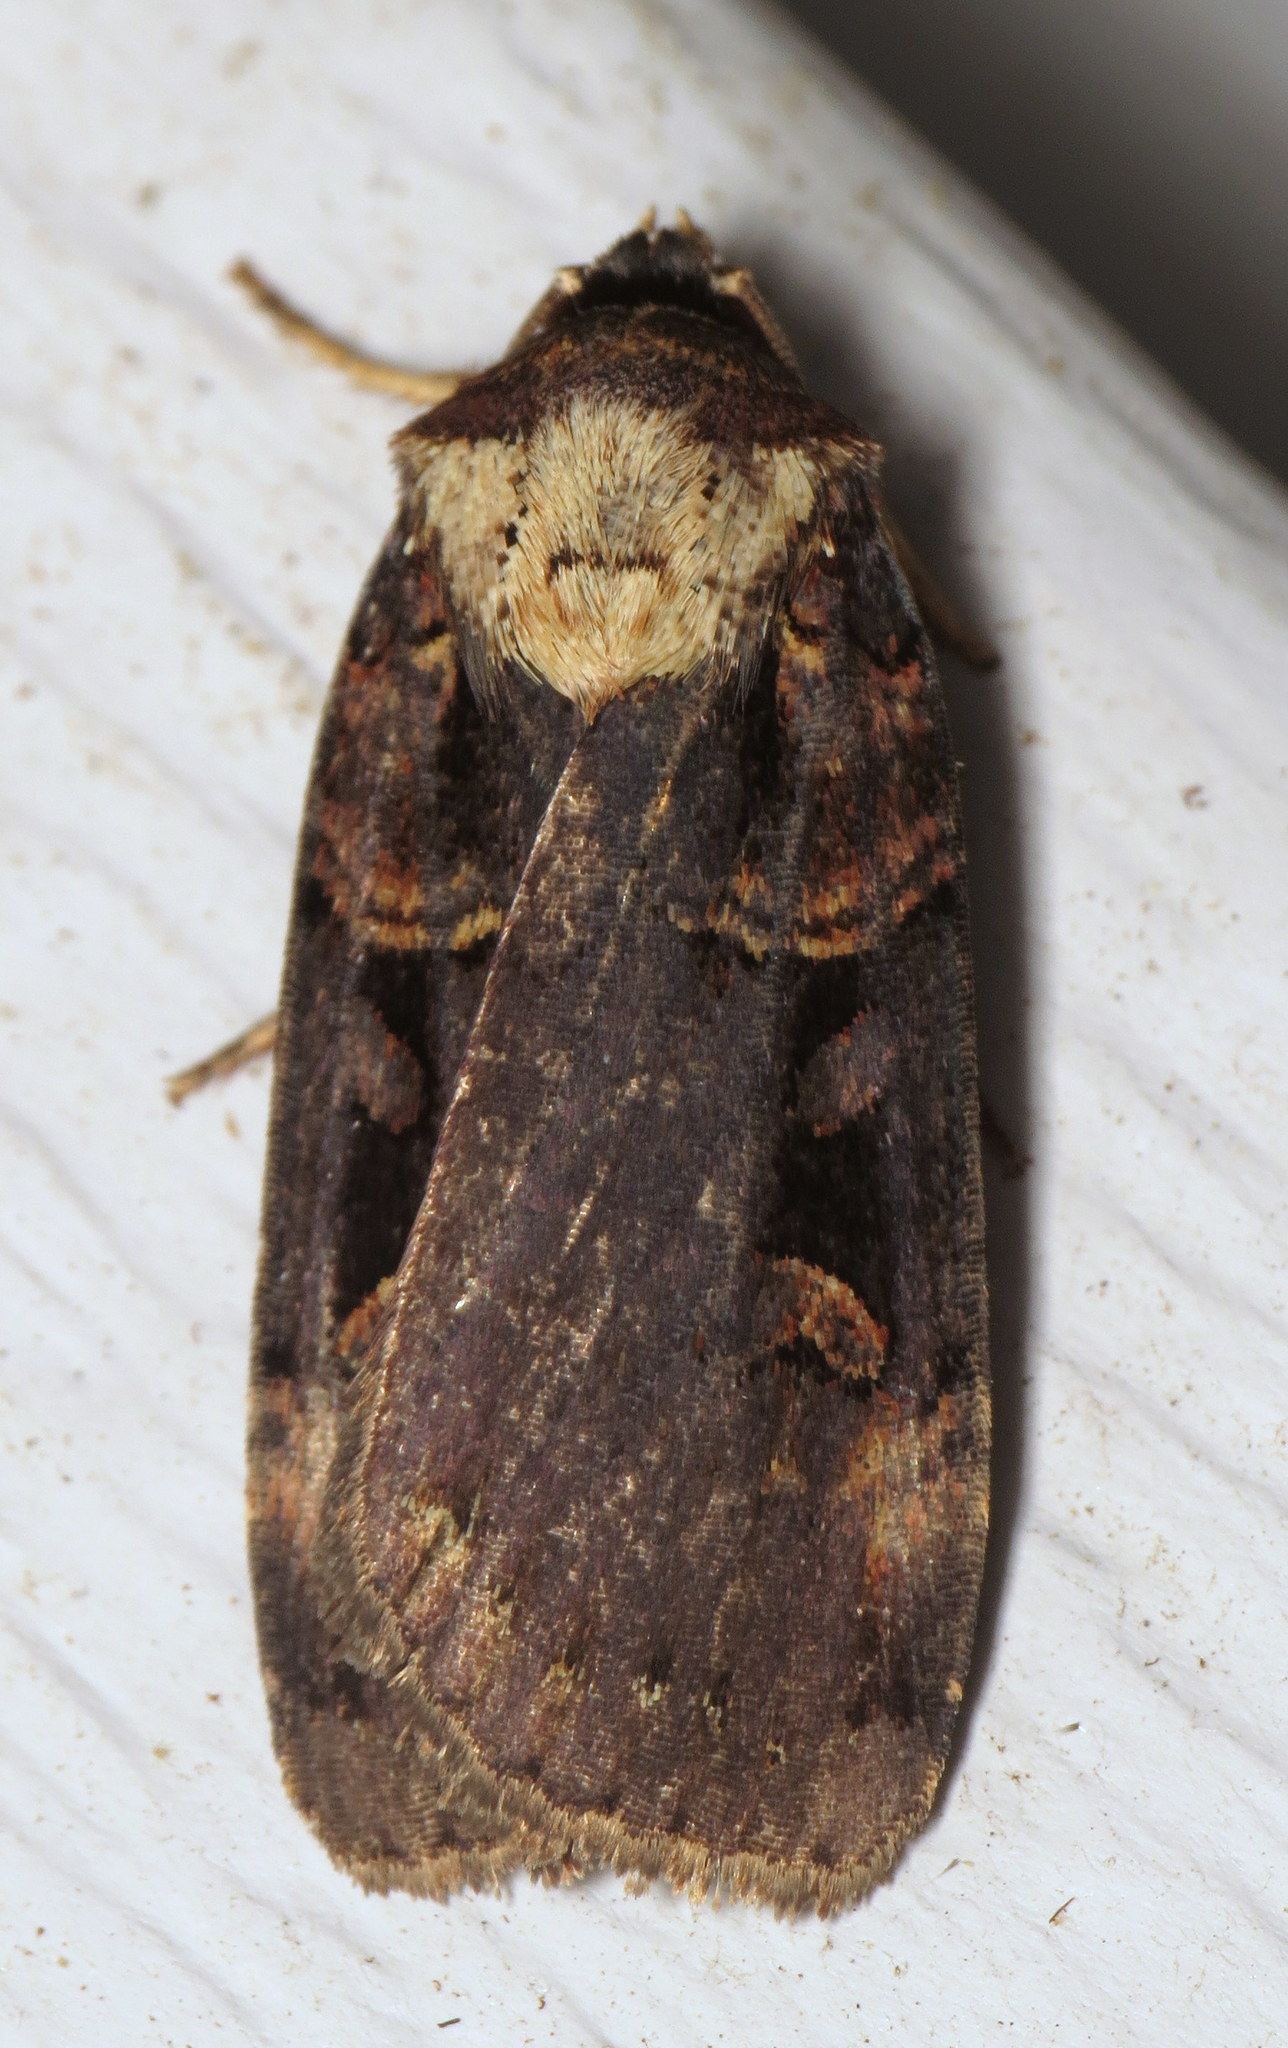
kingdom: Animalia
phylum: Arthropoda
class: Insecta
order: Lepidoptera
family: Noctuidae
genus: Pseudohermonassa
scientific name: Pseudohermonassa bicarnea
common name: Pink spotted dart
